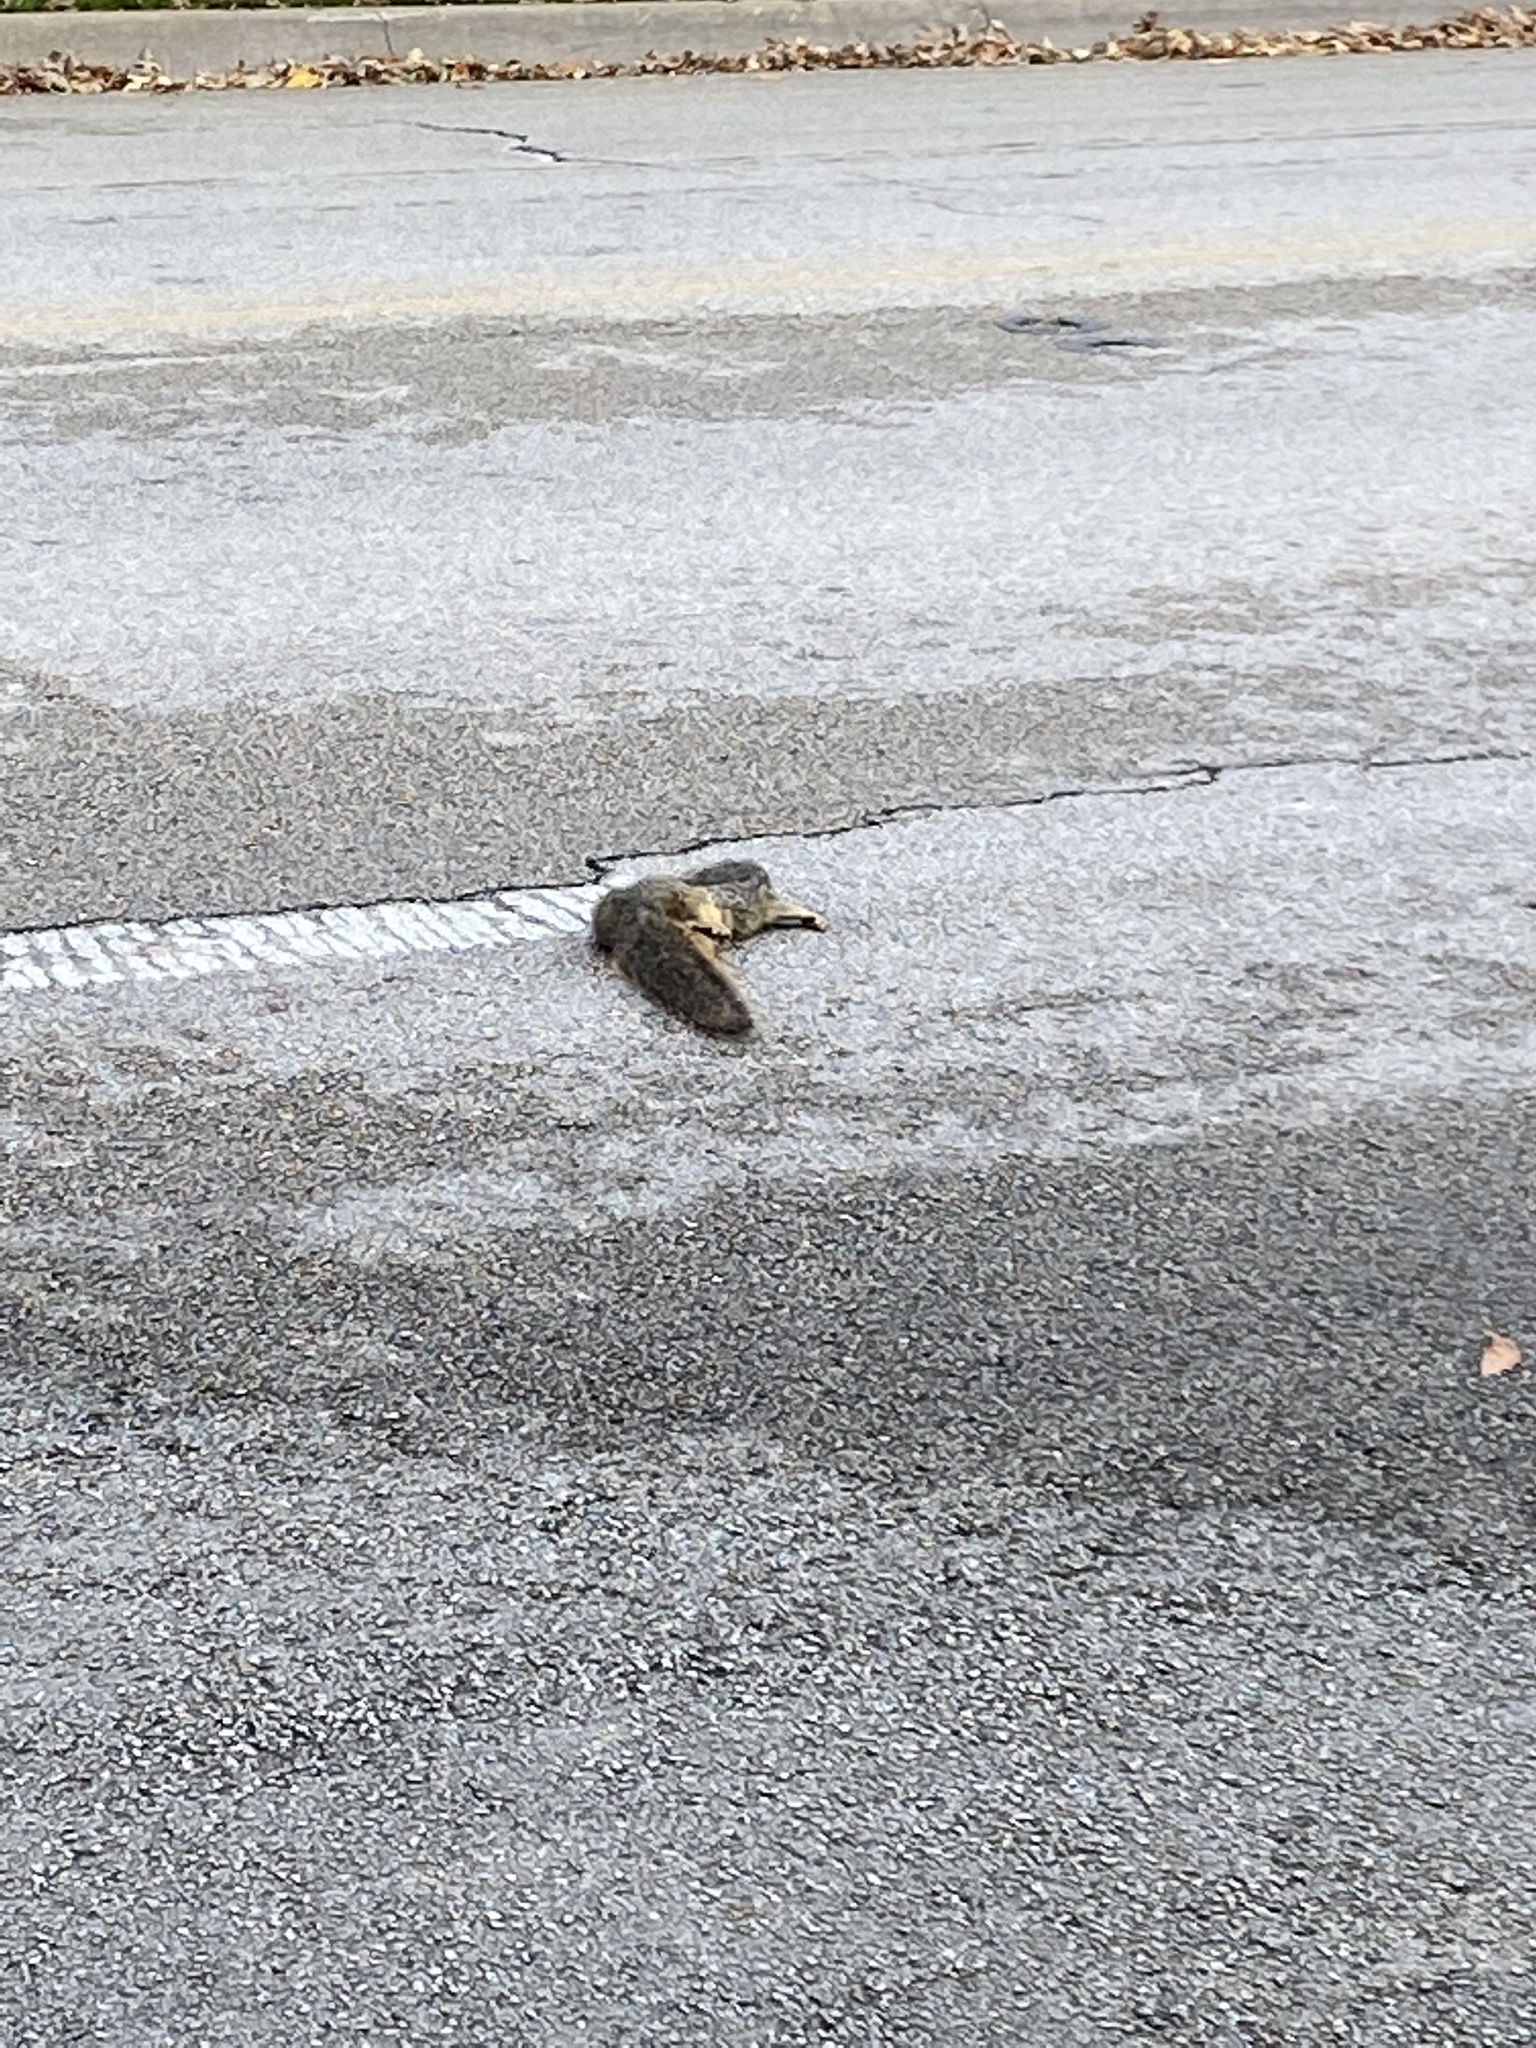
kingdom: Animalia
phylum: Chordata
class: Mammalia
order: Rodentia
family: Sciuridae
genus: Sciurus
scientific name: Sciurus niger
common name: Fox squirrel
